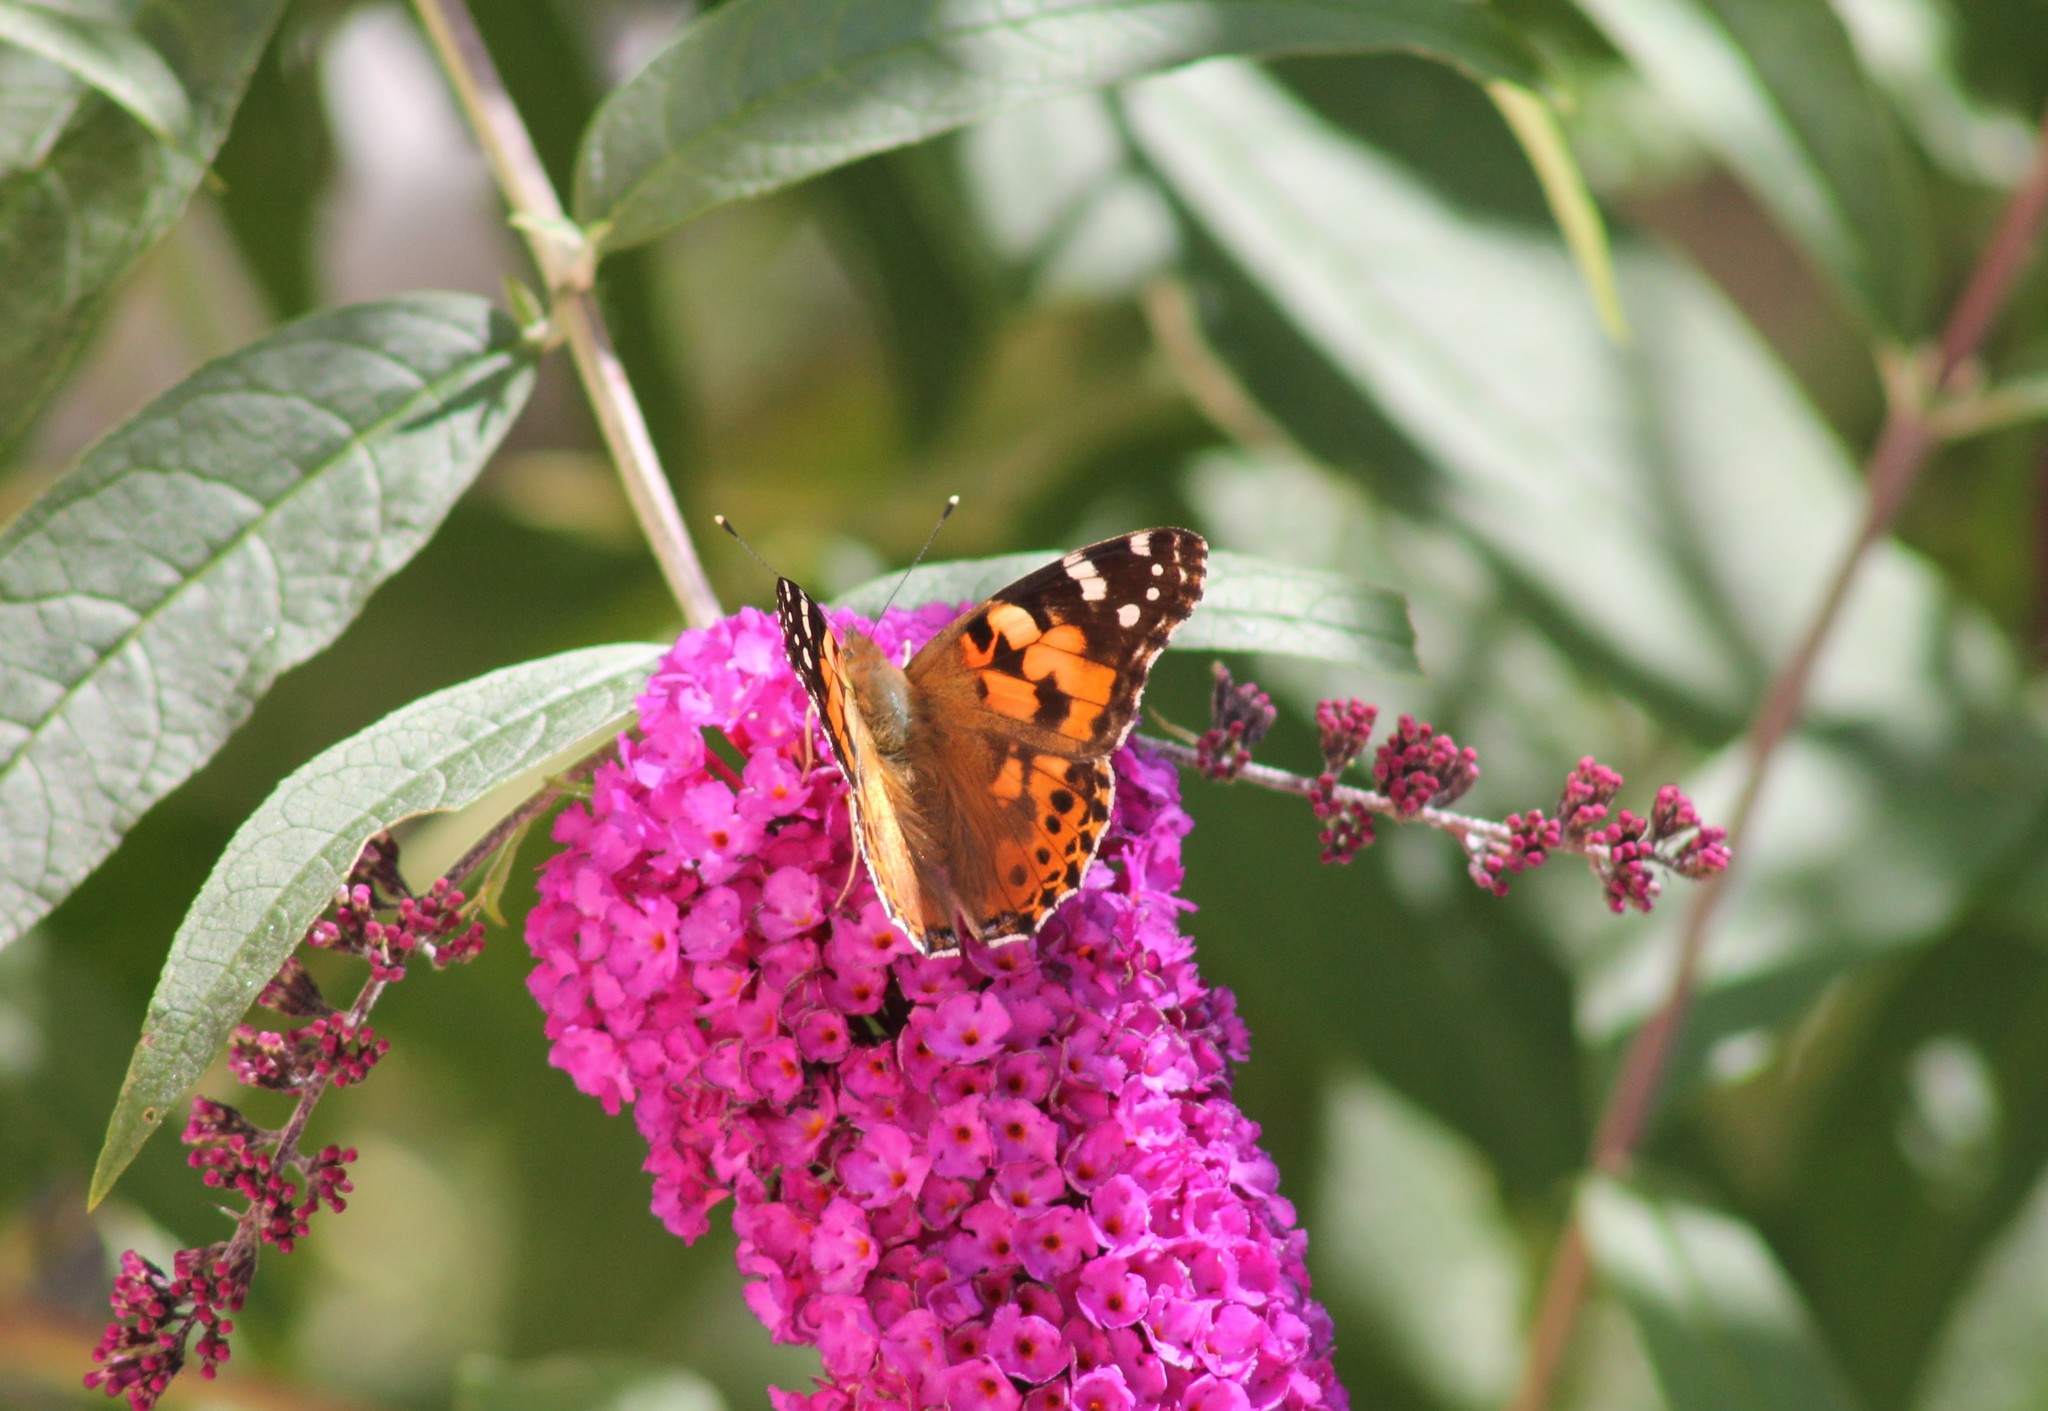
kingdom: Animalia
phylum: Arthropoda
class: Insecta
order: Lepidoptera
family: Nymphalidae
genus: Vanessa
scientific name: Vanessa cardui
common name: Painted lady
